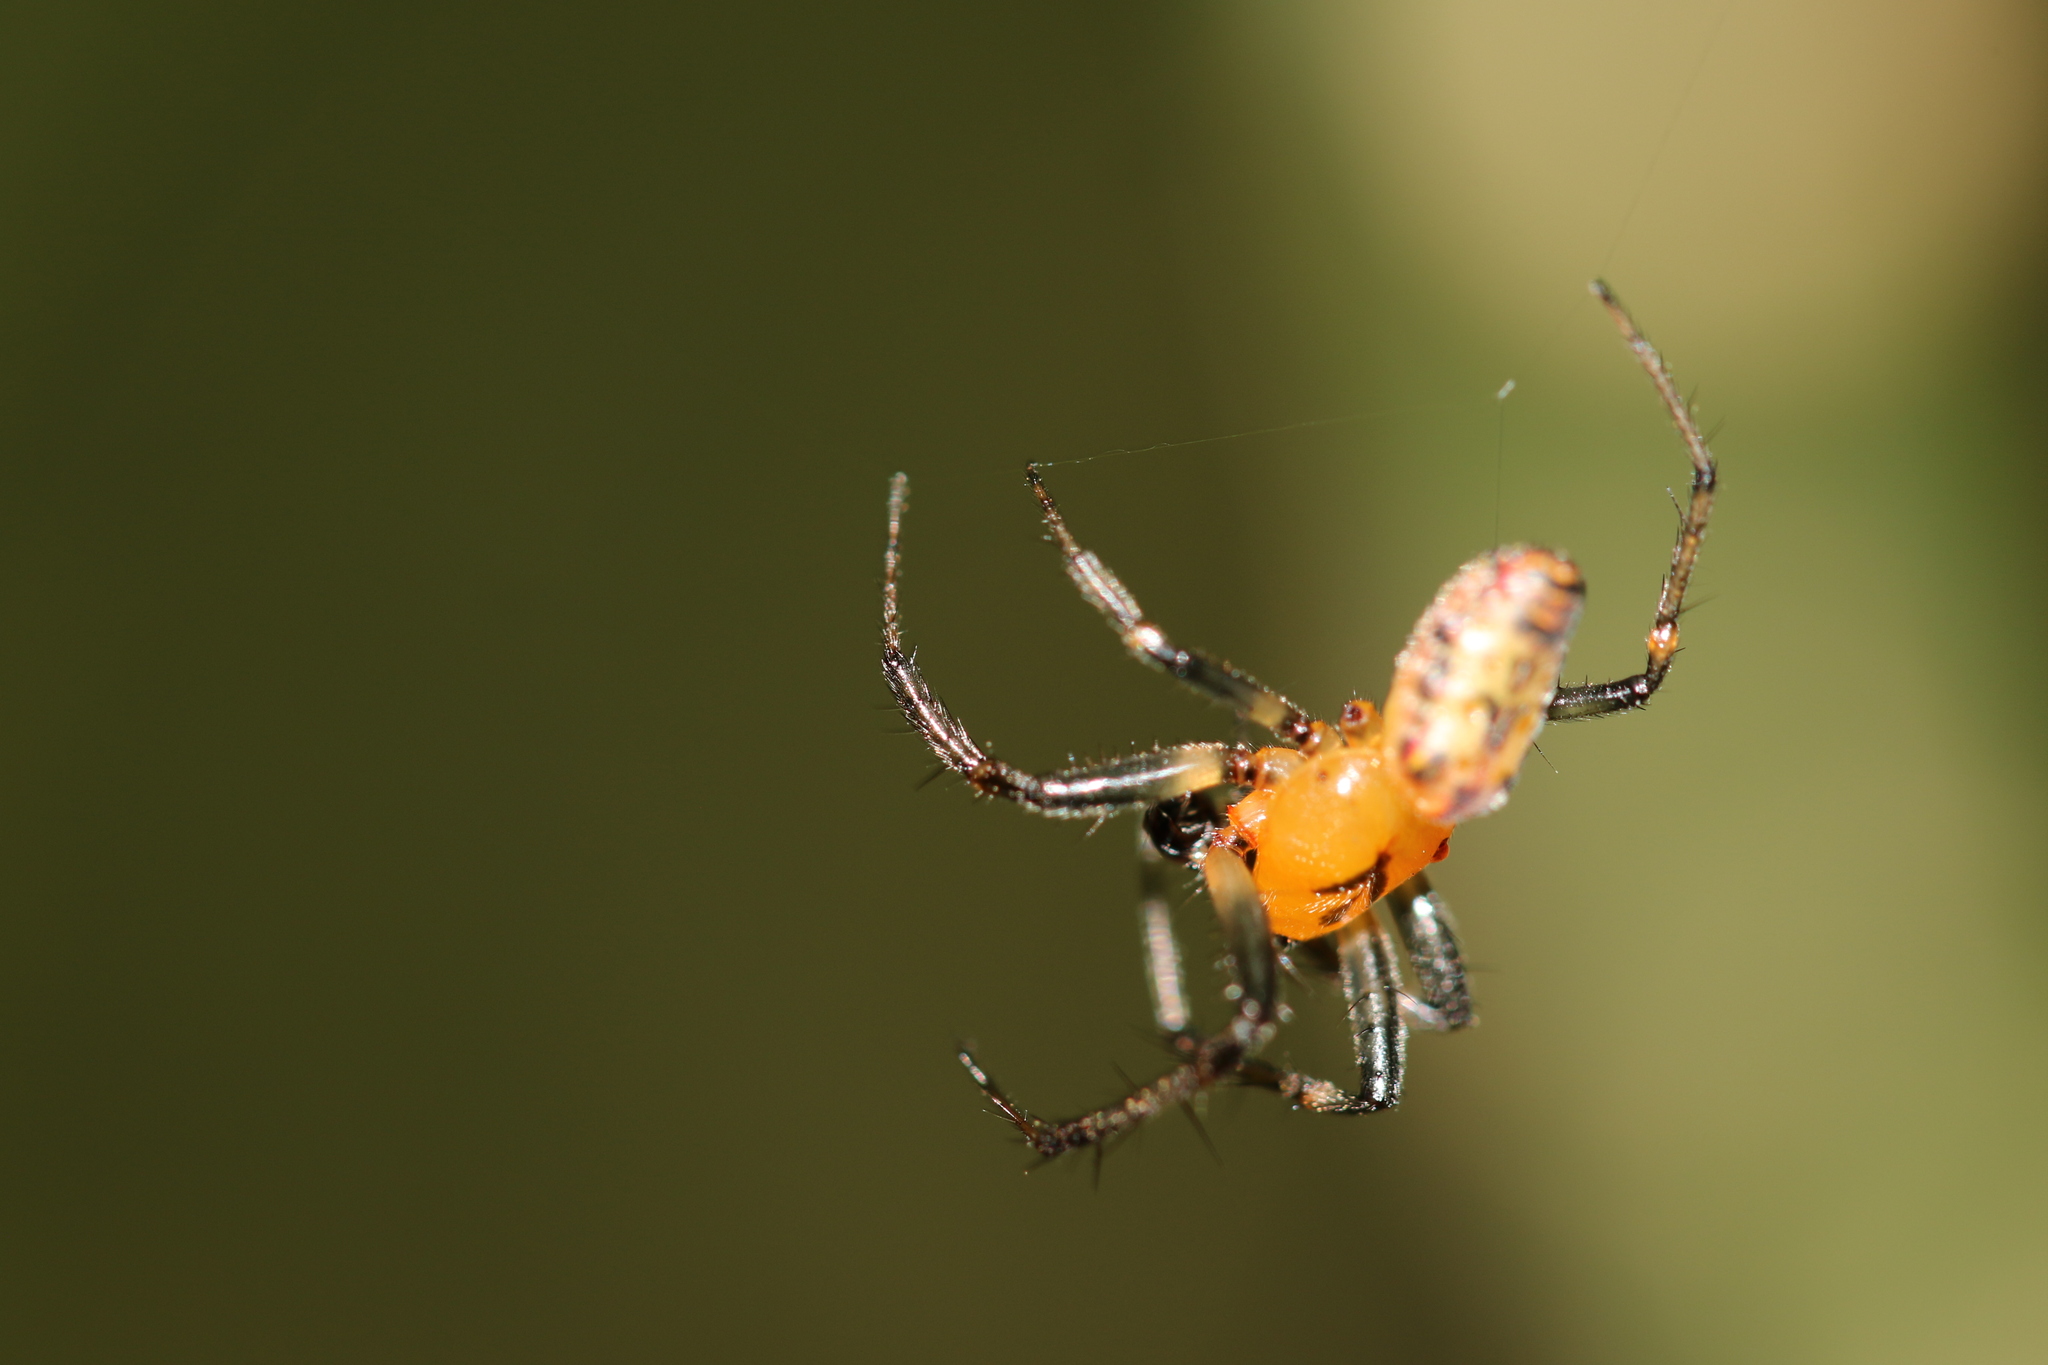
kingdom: Animalia
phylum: Arthropoda
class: Arachnida
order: Araneae
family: Araneidae
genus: Alpaida
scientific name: Alpaida scriba
